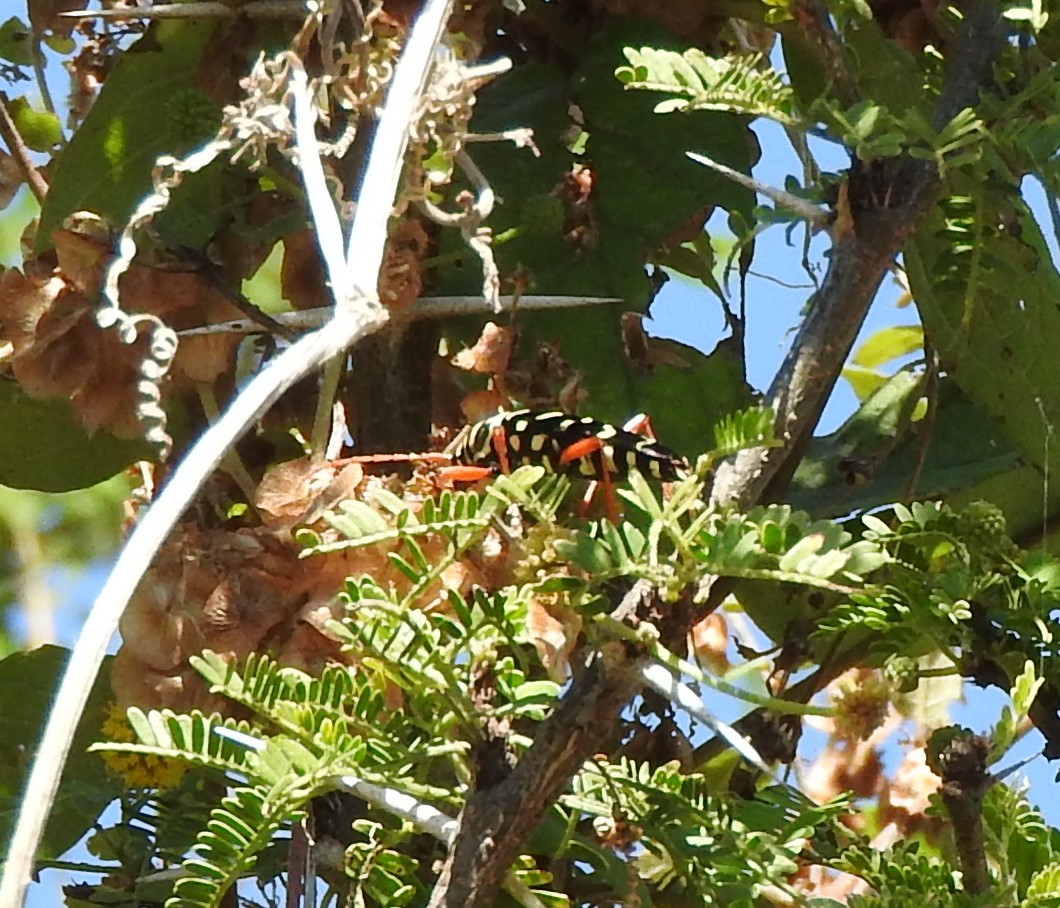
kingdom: Animalia
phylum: Arthropoda
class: Insecta
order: Coleoptera
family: Cerambycidae
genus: Placosternus
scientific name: Placosternus erythropus
